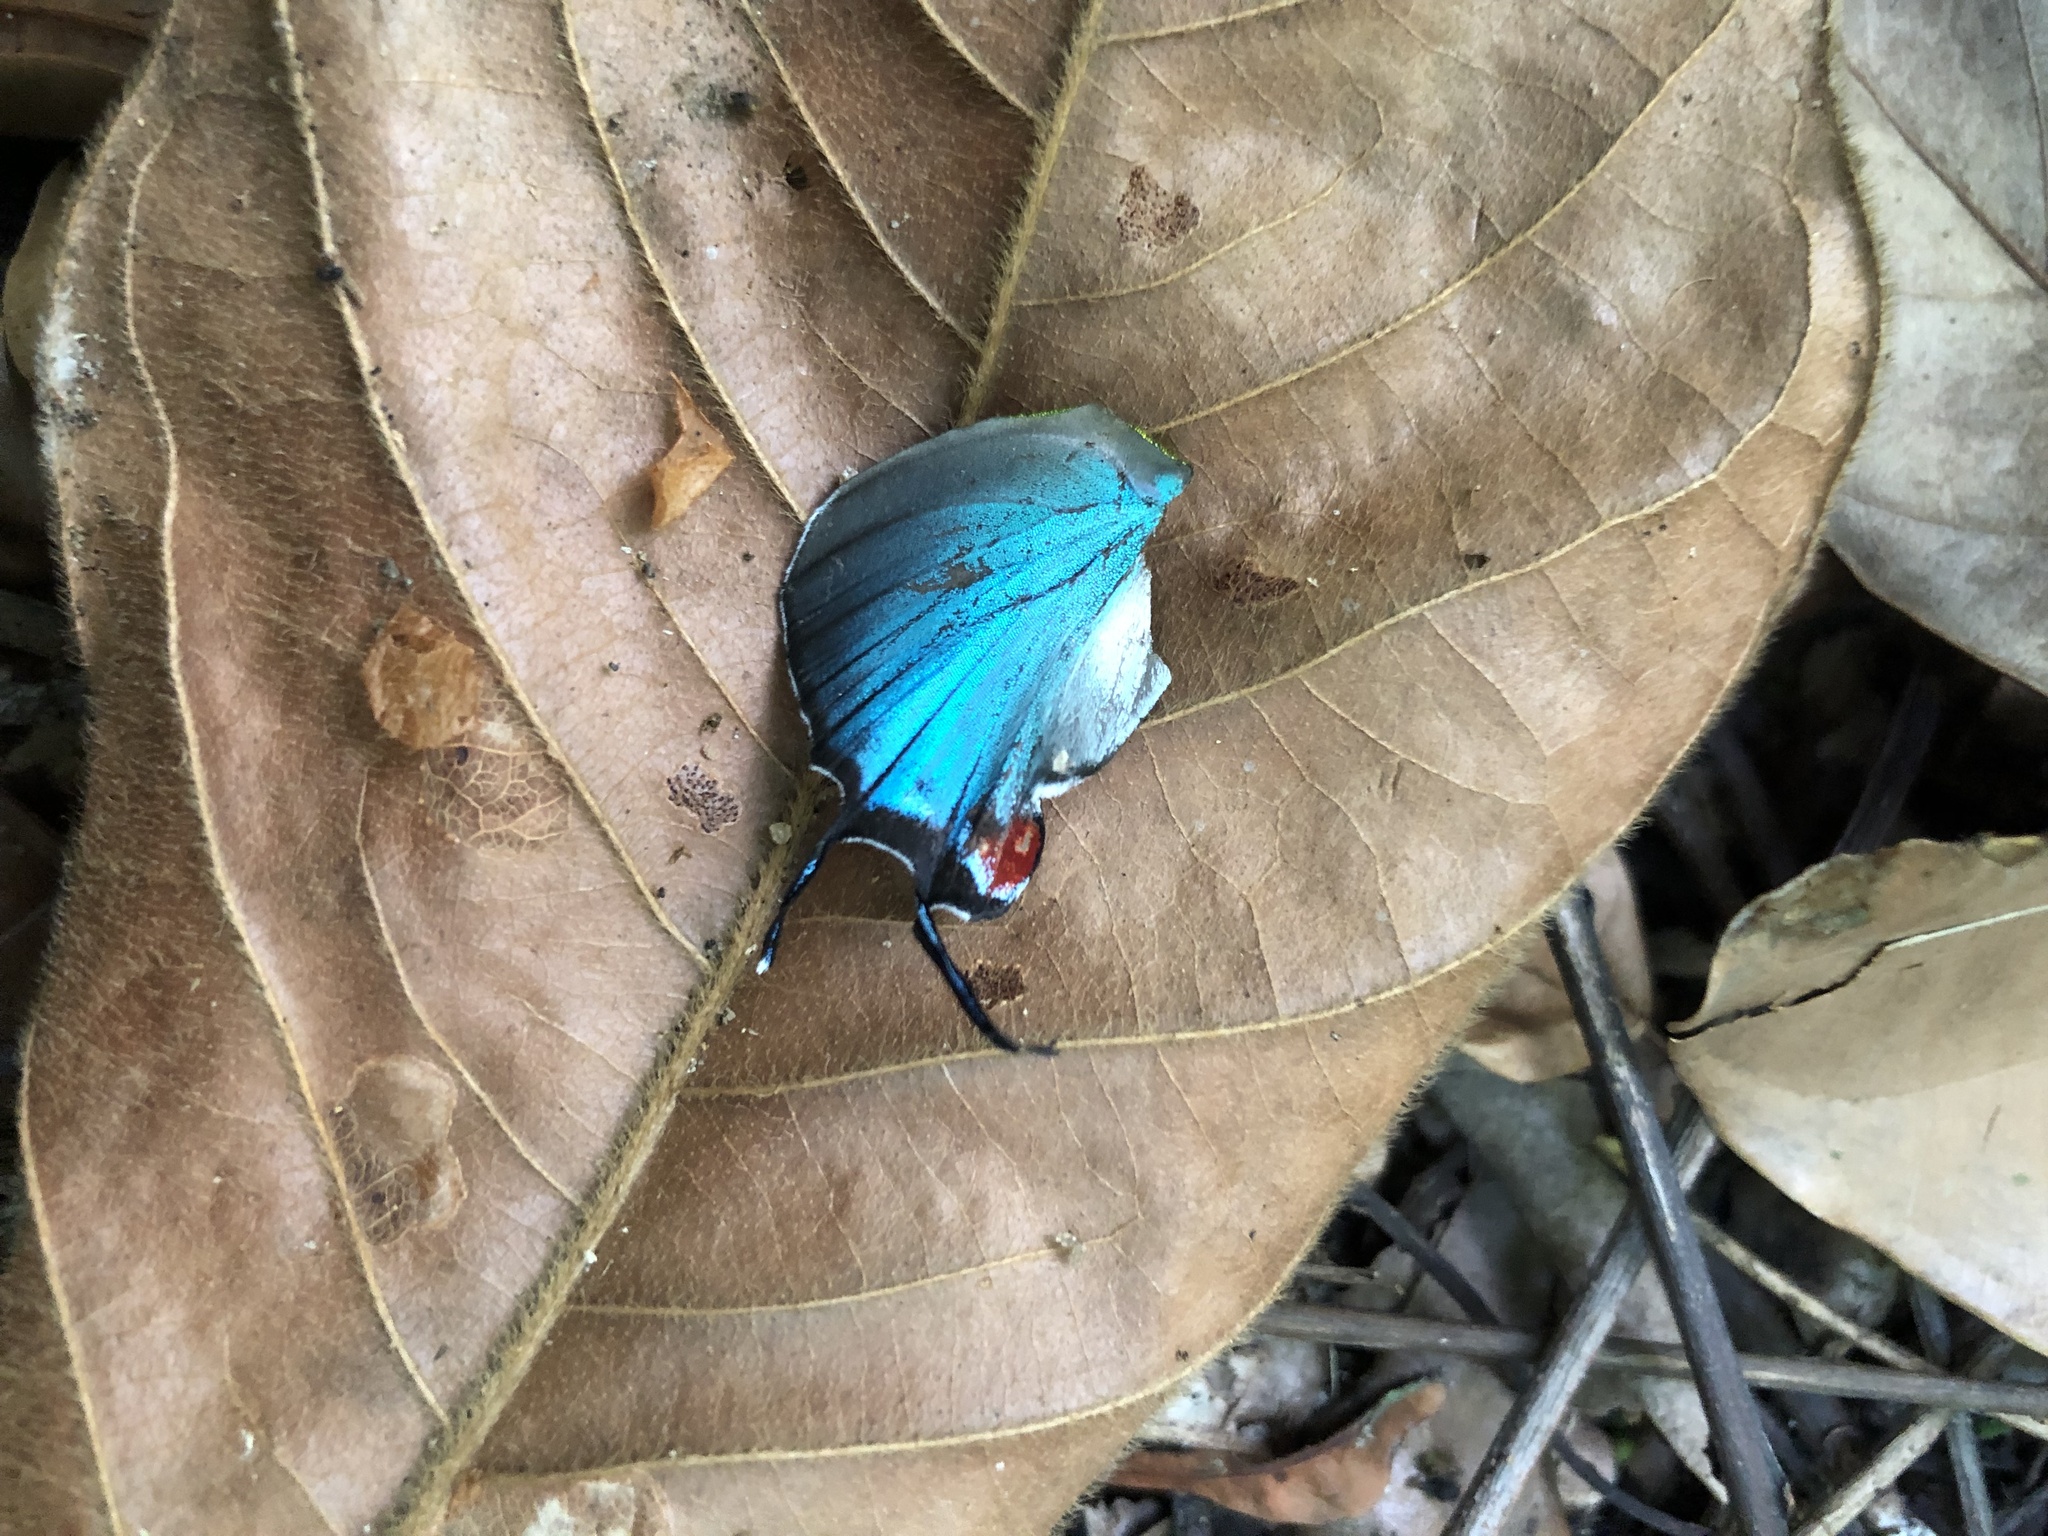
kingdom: Animalia
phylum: Arthropoda
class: Insecta
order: Lepidoptera
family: Lycaenidae
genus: Evenus
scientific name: Evenus regalis
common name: Regal hairstreak
